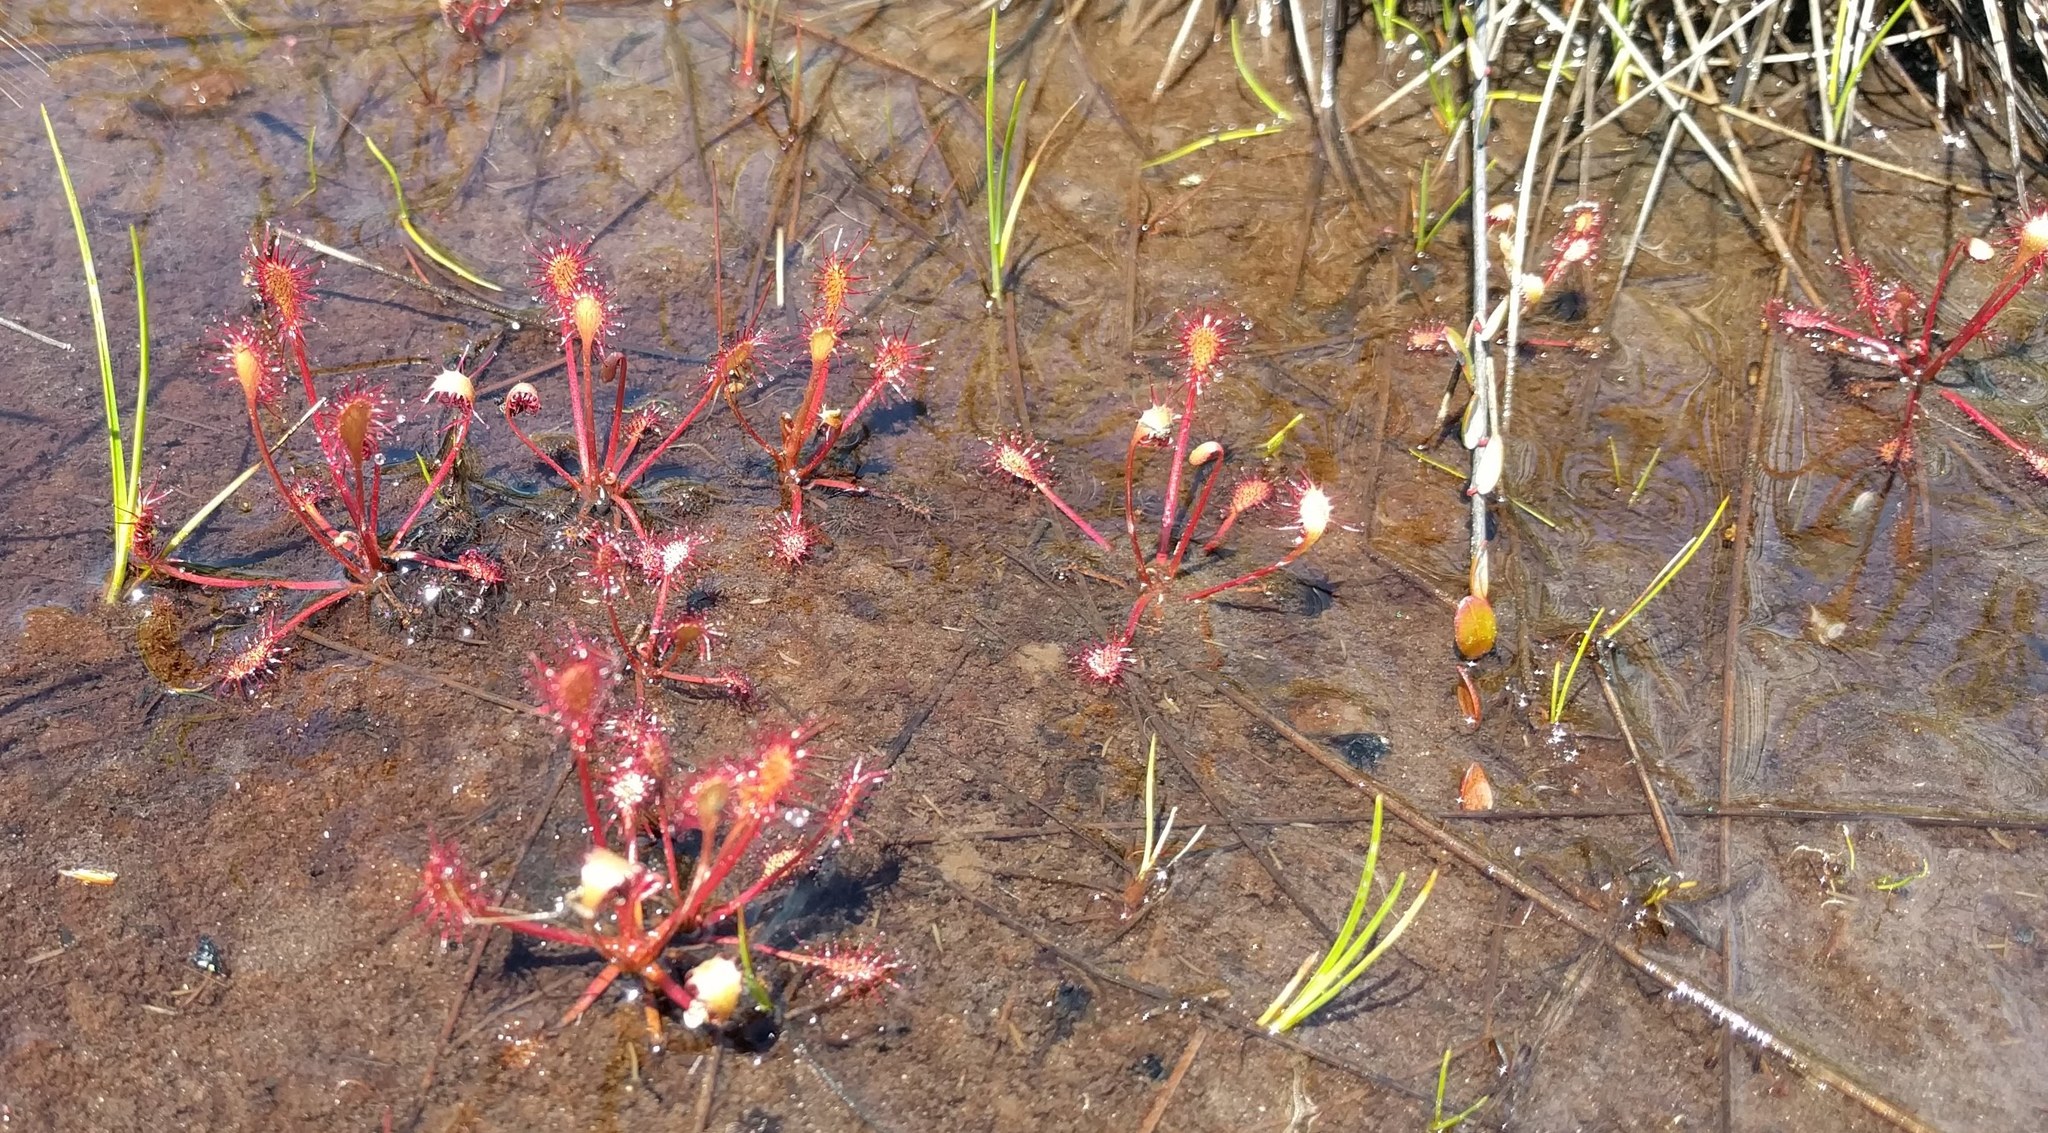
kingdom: Plantae
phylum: Tracheophyta
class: Magnoliopsida
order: Caryophyllales
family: Droseraceae
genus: Drosera
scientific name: Drosera intermedia
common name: Oblong-leaved sundew
